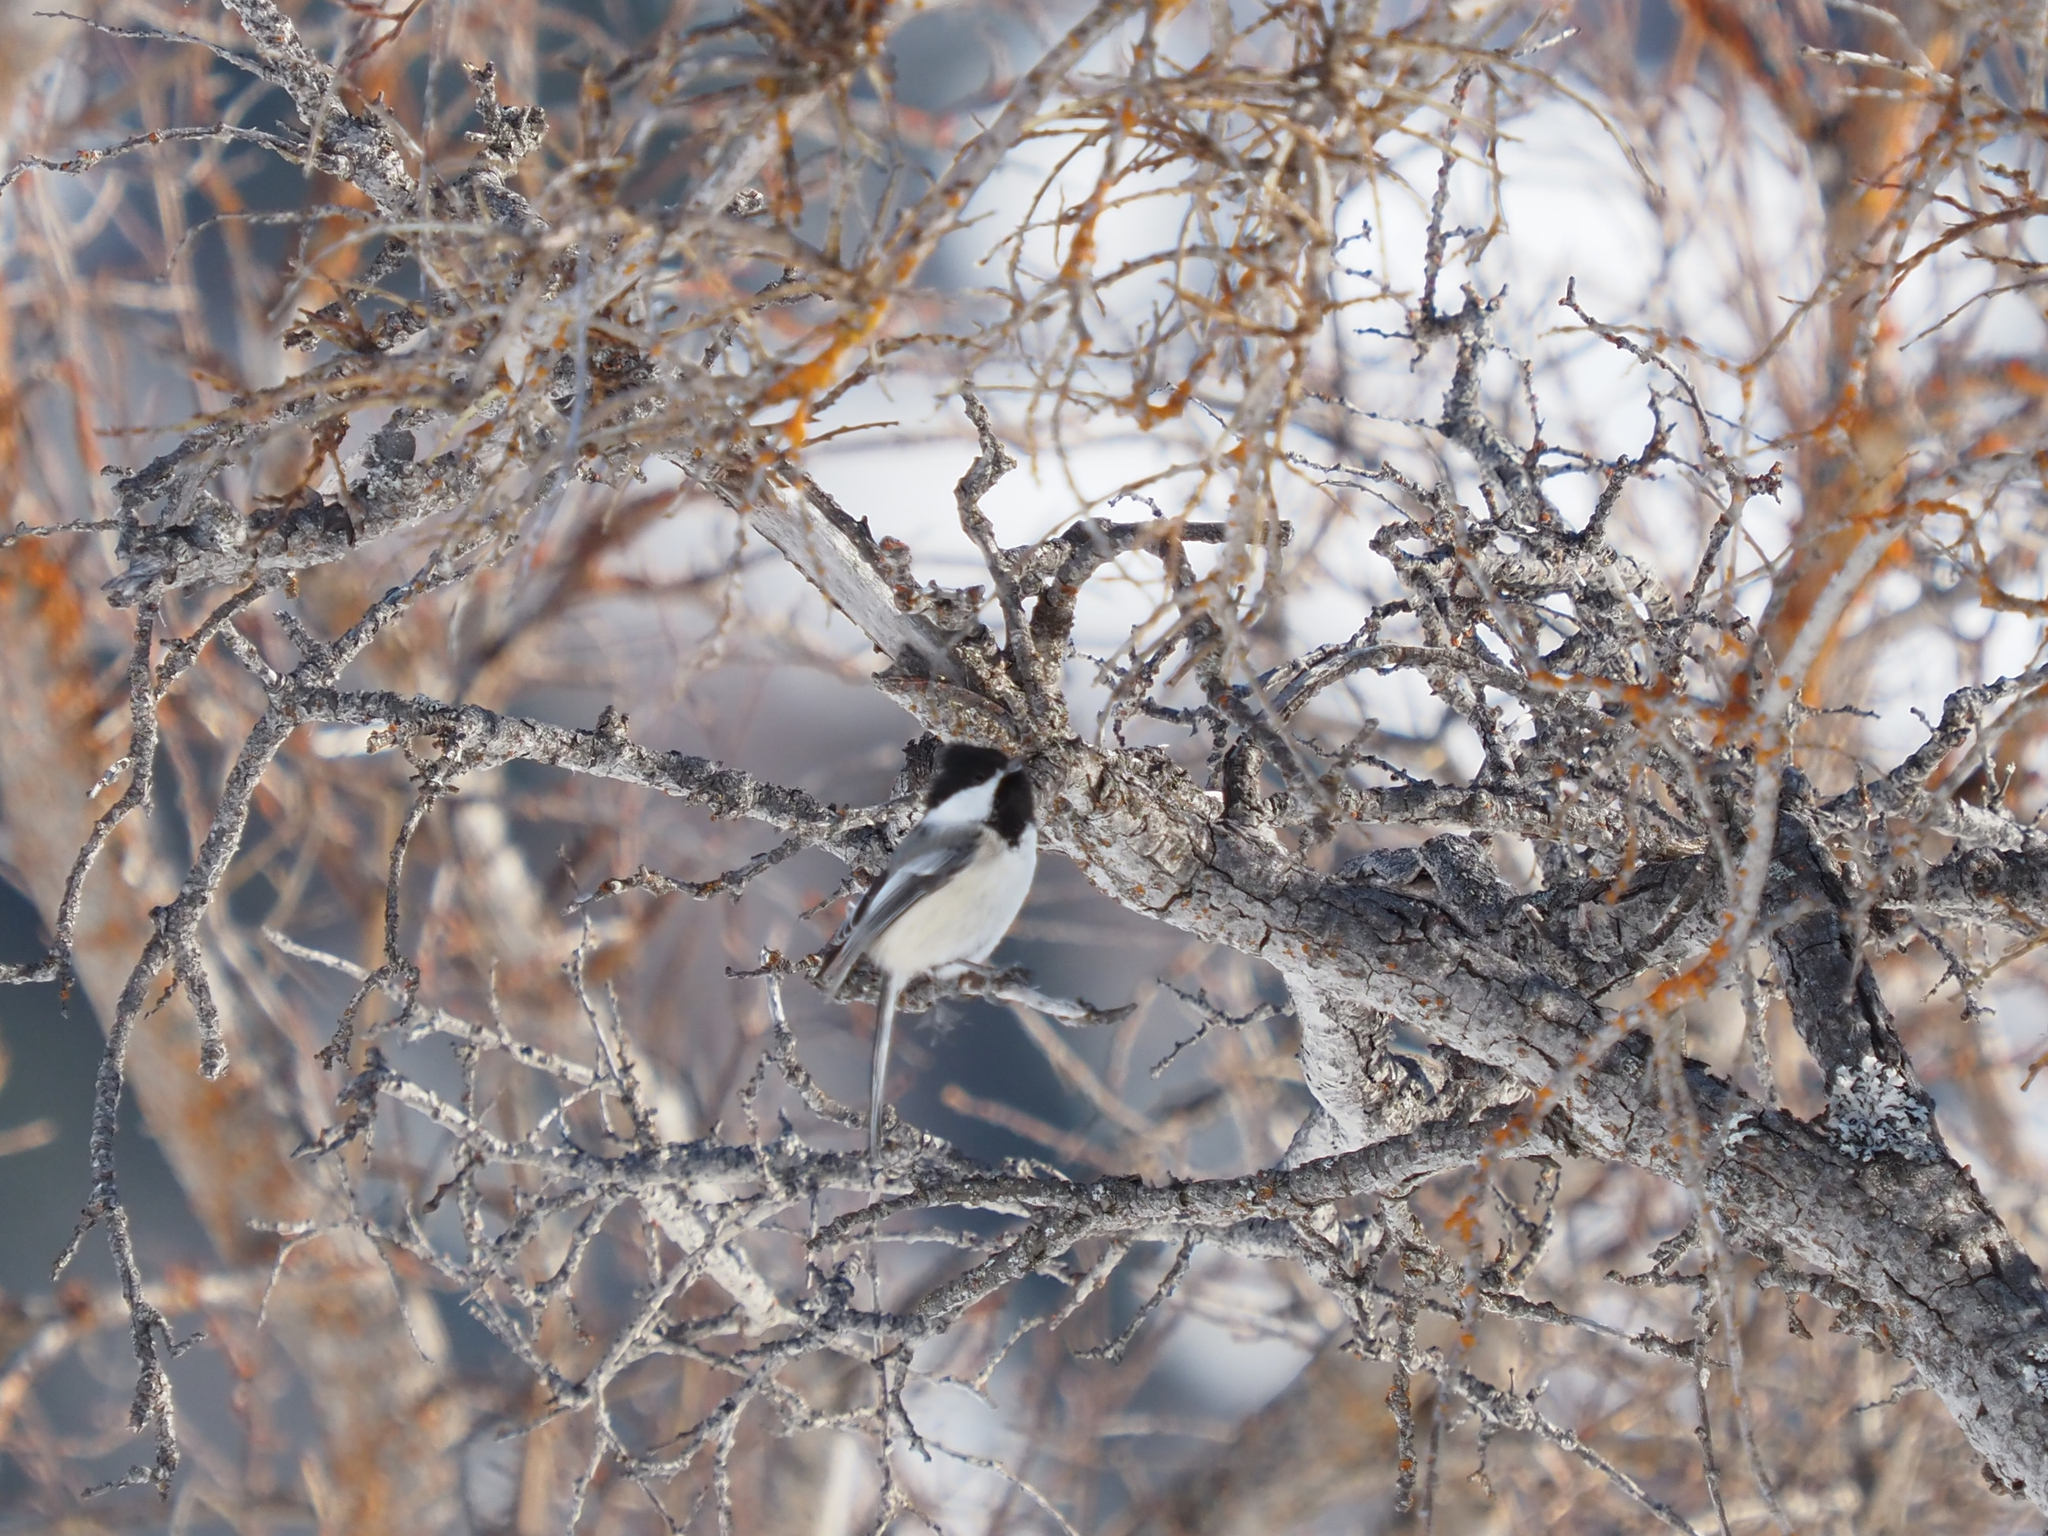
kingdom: Animalia
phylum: Chordata
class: Aves
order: Passeriformes
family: Paridae
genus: Poecile
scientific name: Poecile atricapillus
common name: Black-capped chickadee
